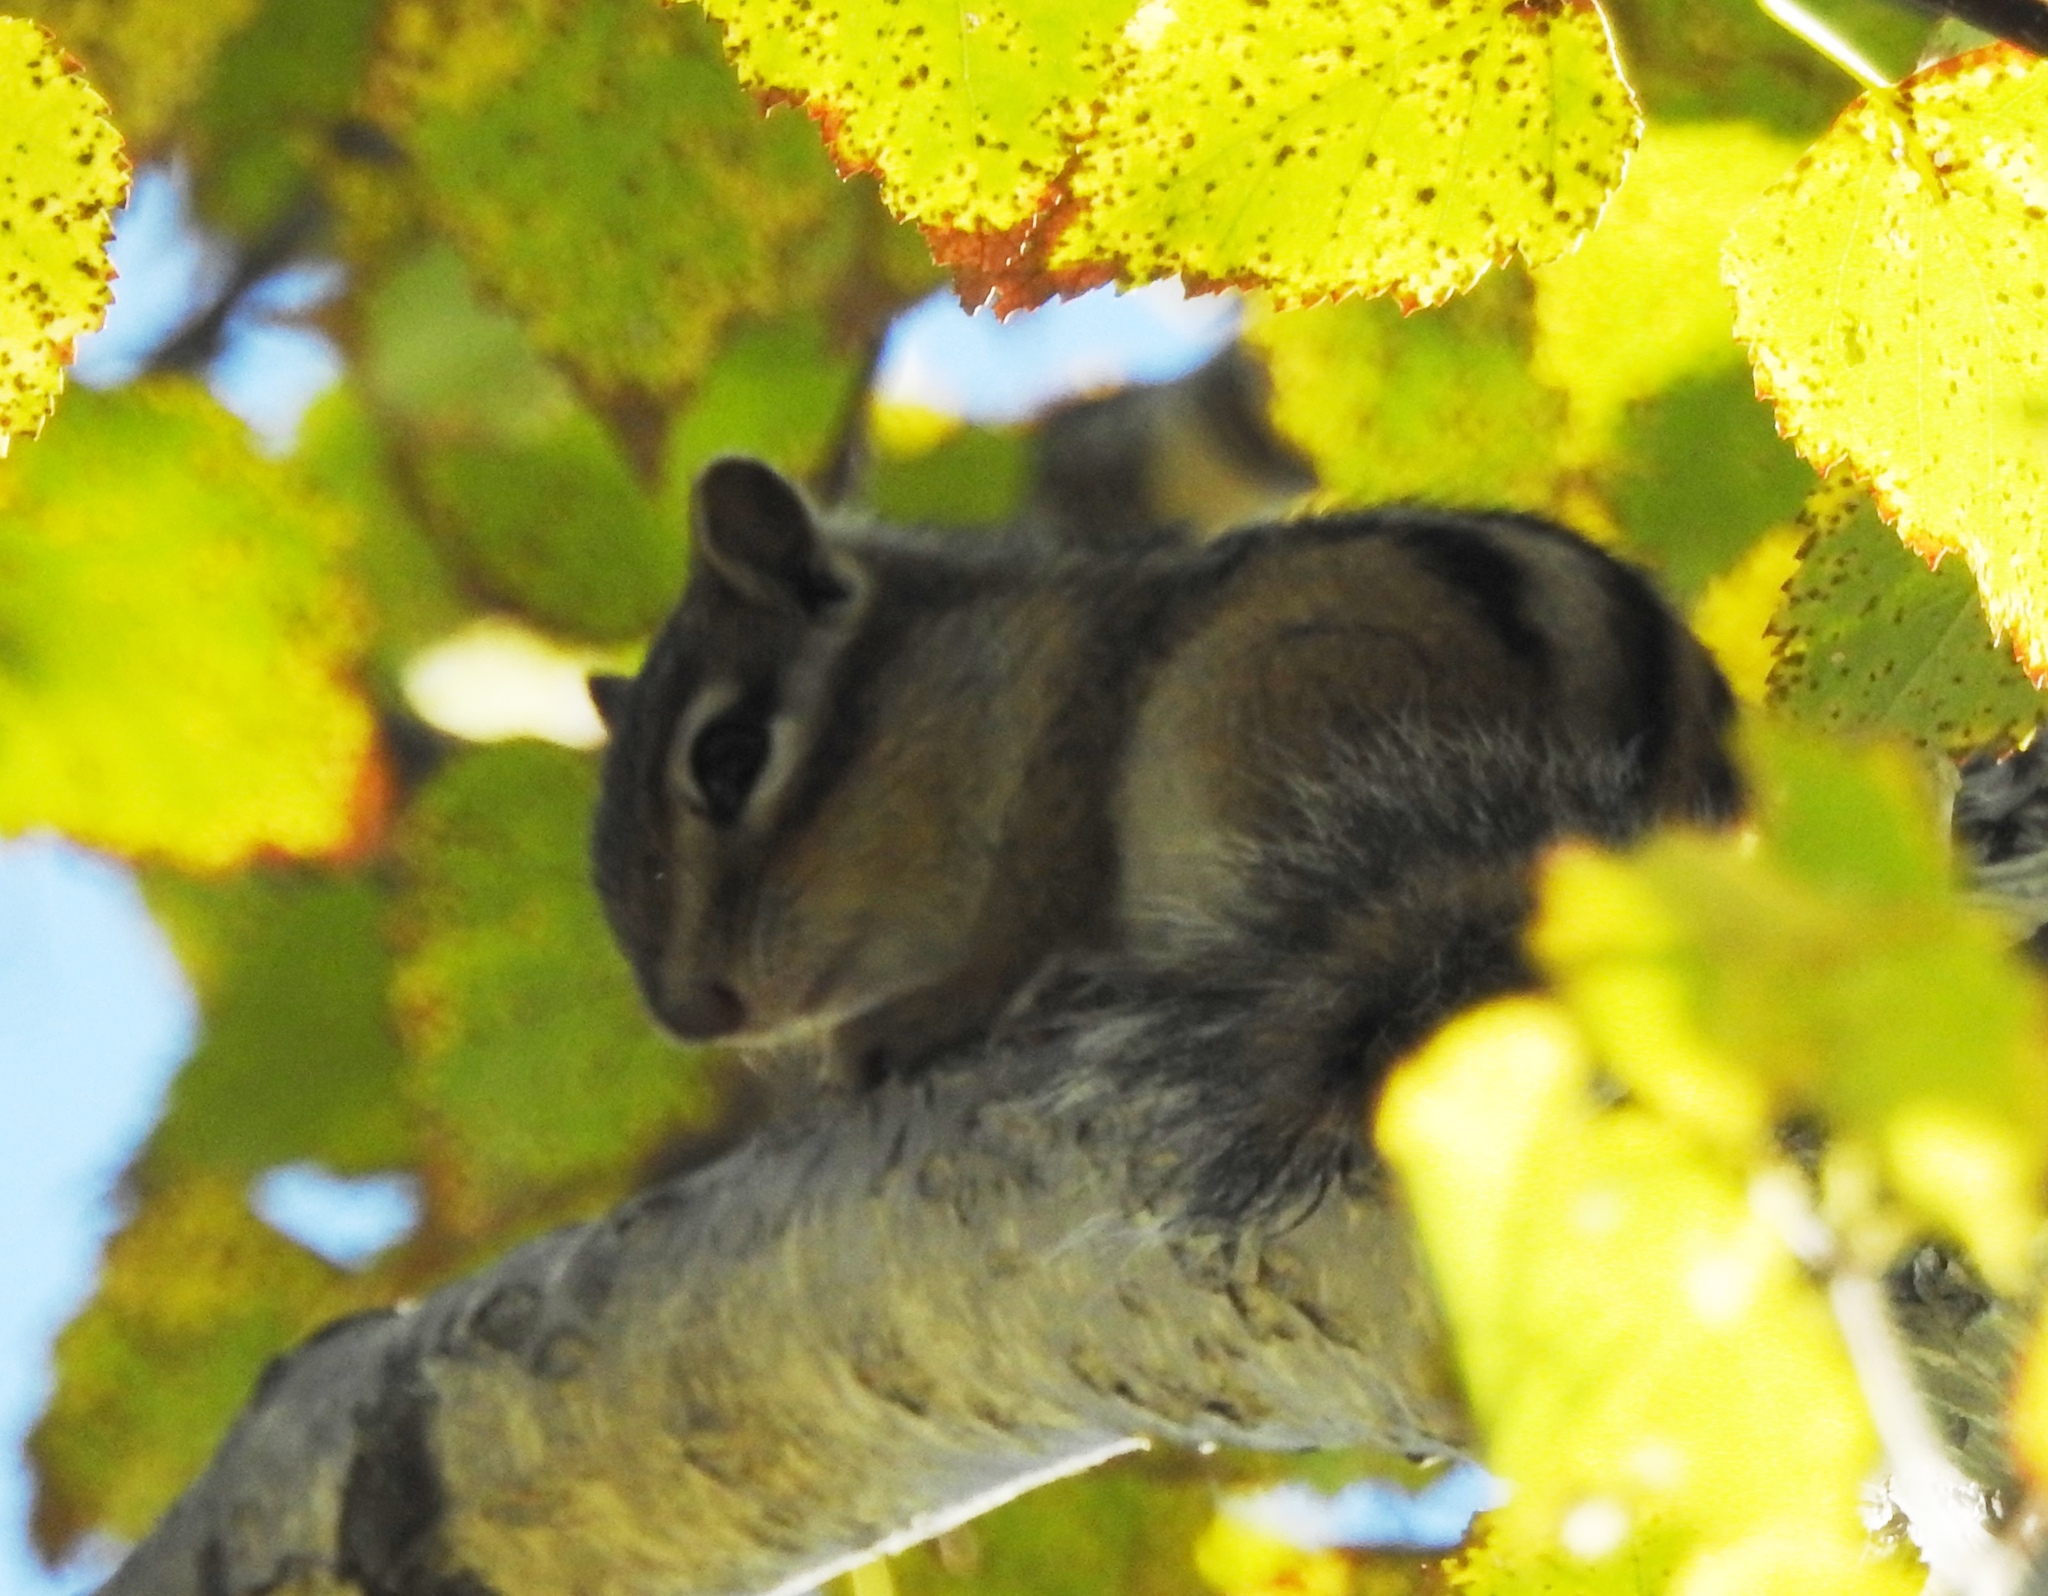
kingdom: Animalia
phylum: Chordata
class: Mammalia
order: Rodentia
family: Sciuridae
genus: Tamias
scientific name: Tamias sibiricus
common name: Siberian chipmunk
